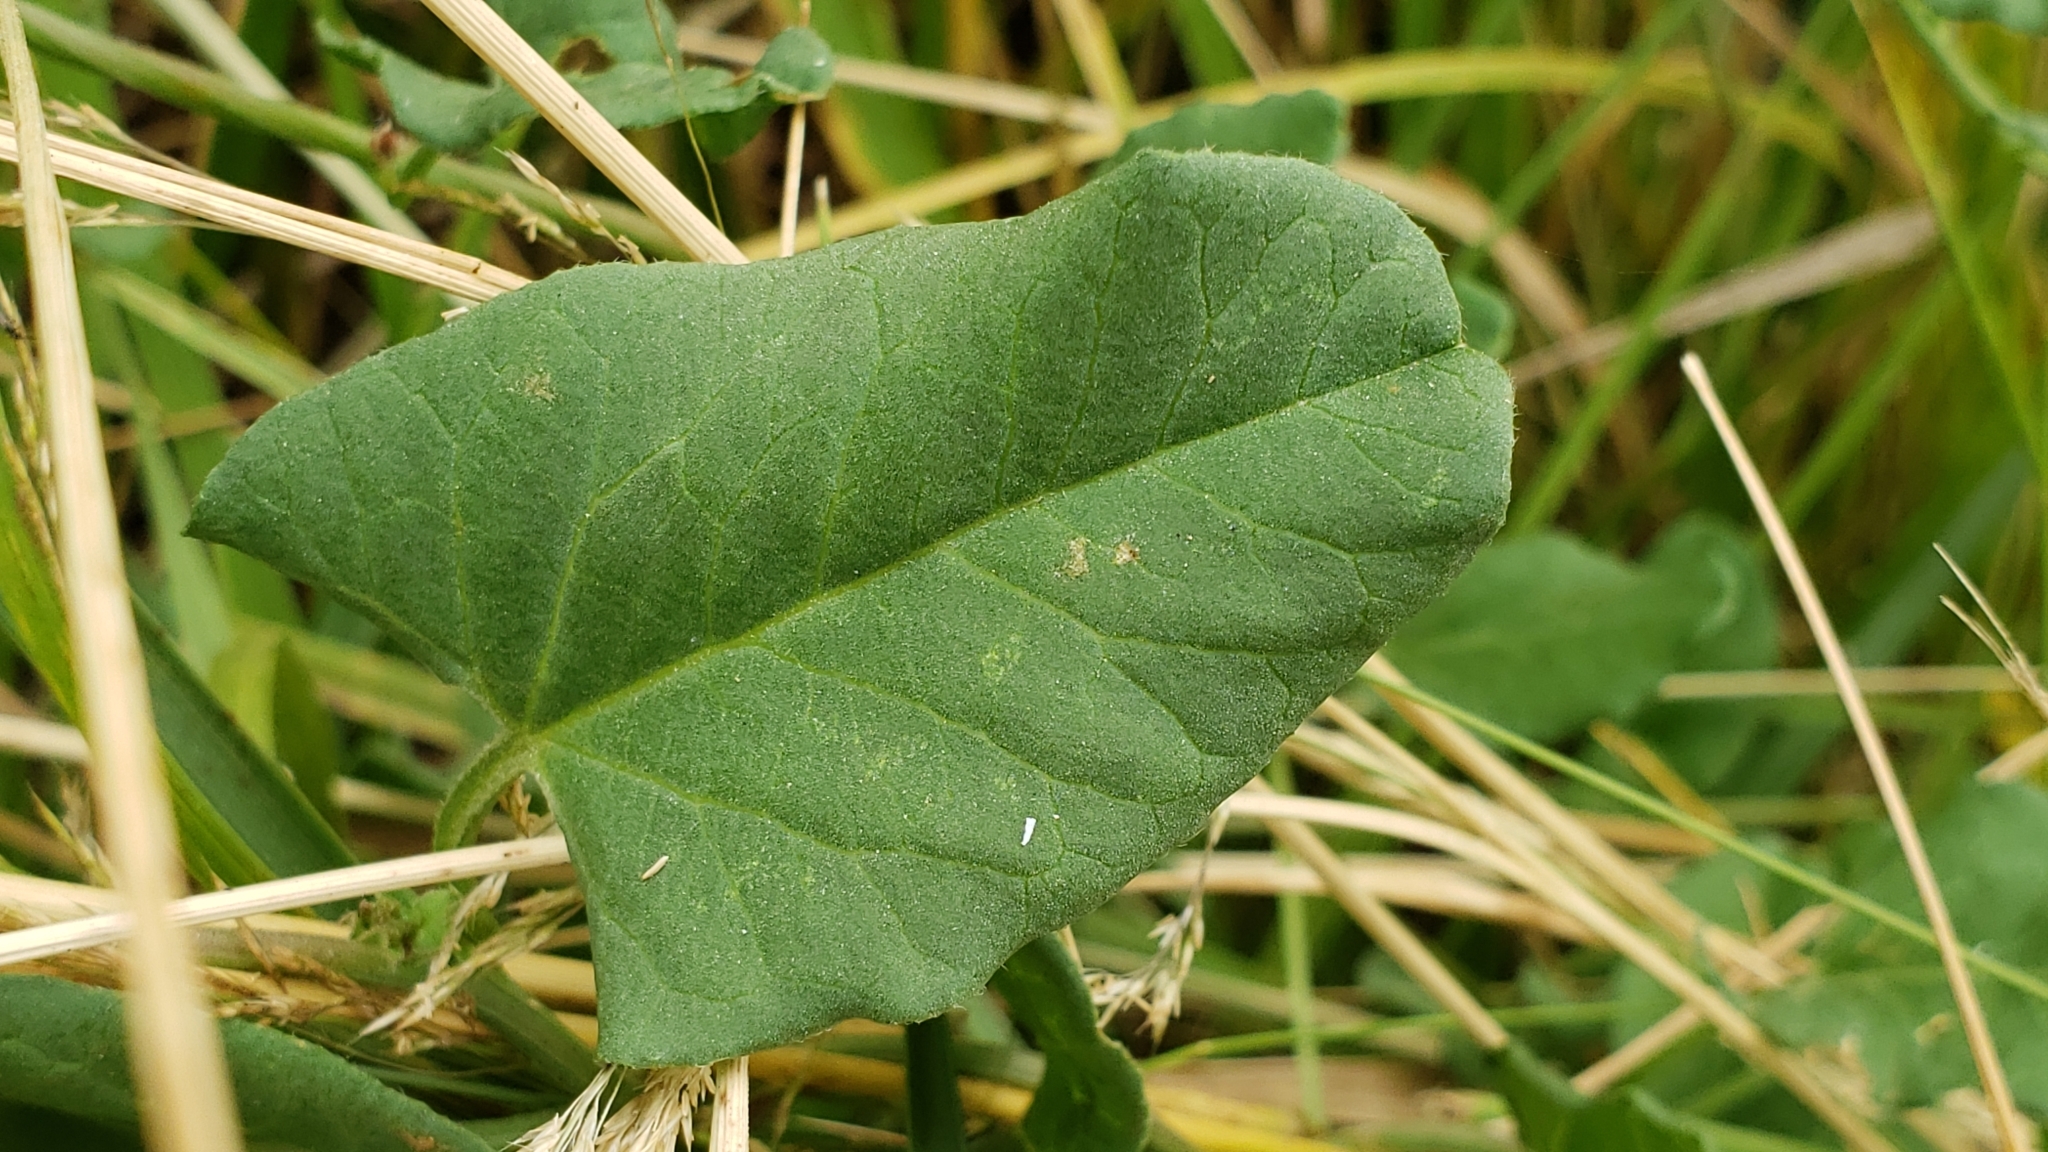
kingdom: Plantae
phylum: Tracheophyta
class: Magnoliopsida
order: Solanales
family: Convolvulaceae
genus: Convolvulus
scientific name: Convolvulus arvensis
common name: Field bindweed
